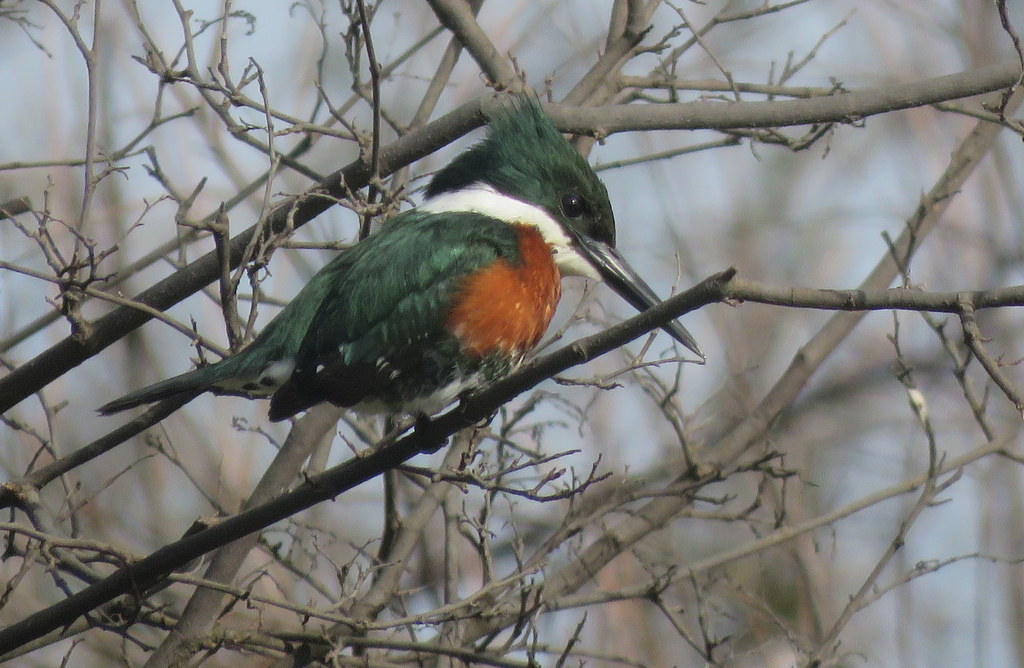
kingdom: Animalia
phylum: Chordata
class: Aves
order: Coraciiformes
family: Alcedinidae
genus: Chloroceryle
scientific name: Chloroceryle americana
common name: Green kingfisher
